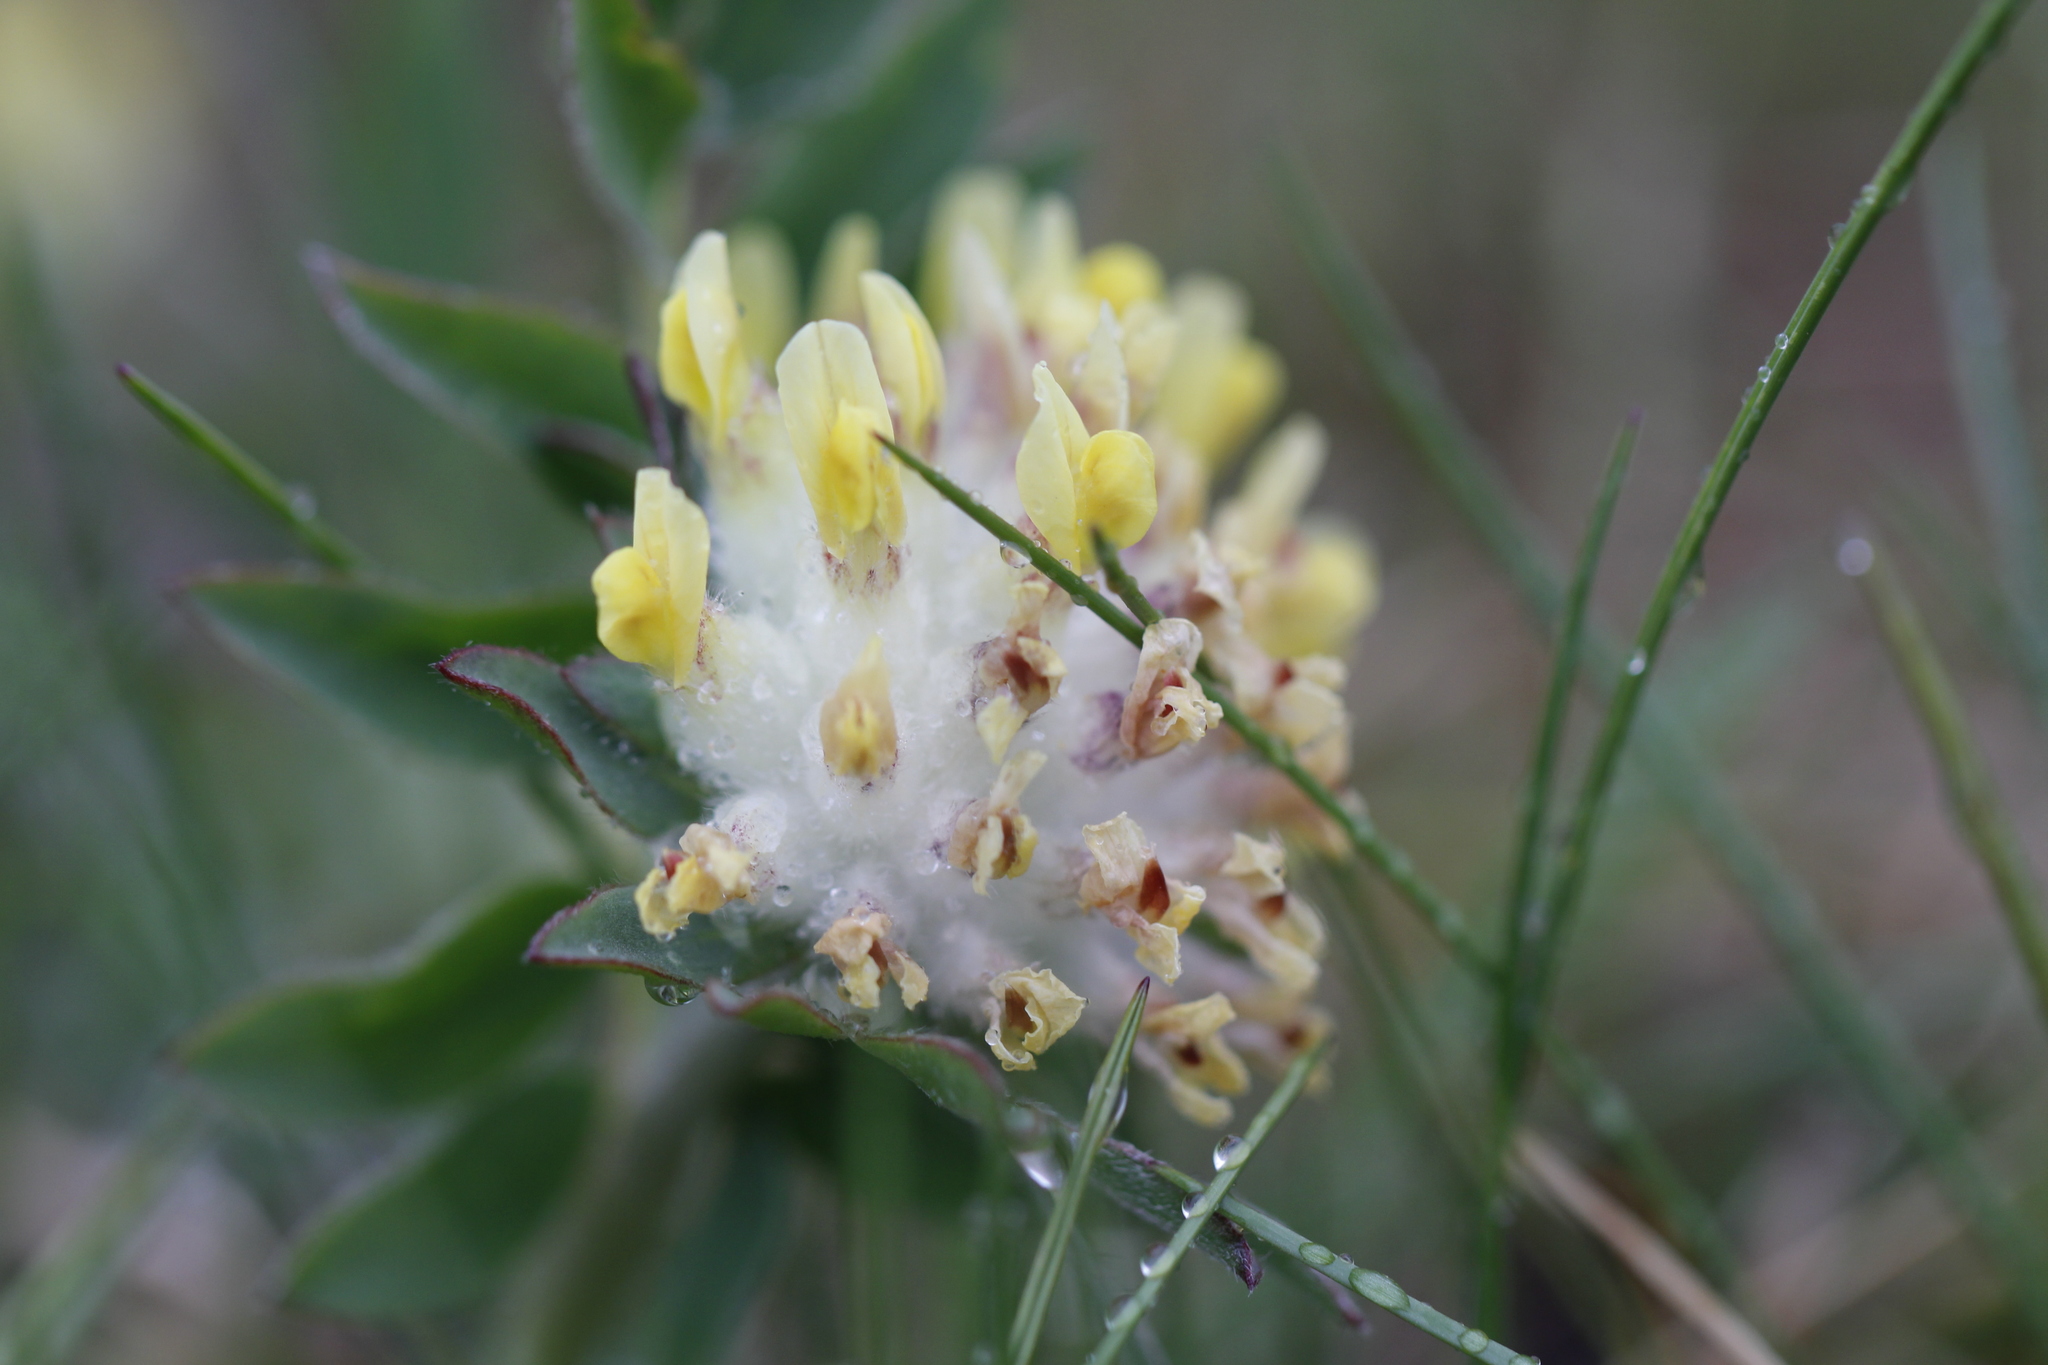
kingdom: Plantae
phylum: Tracheophyta
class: Magnoliopsida
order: Fabales
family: Fabaceae
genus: Anthyllis
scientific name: Anthyllis vulneraria
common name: Kidney vetch
